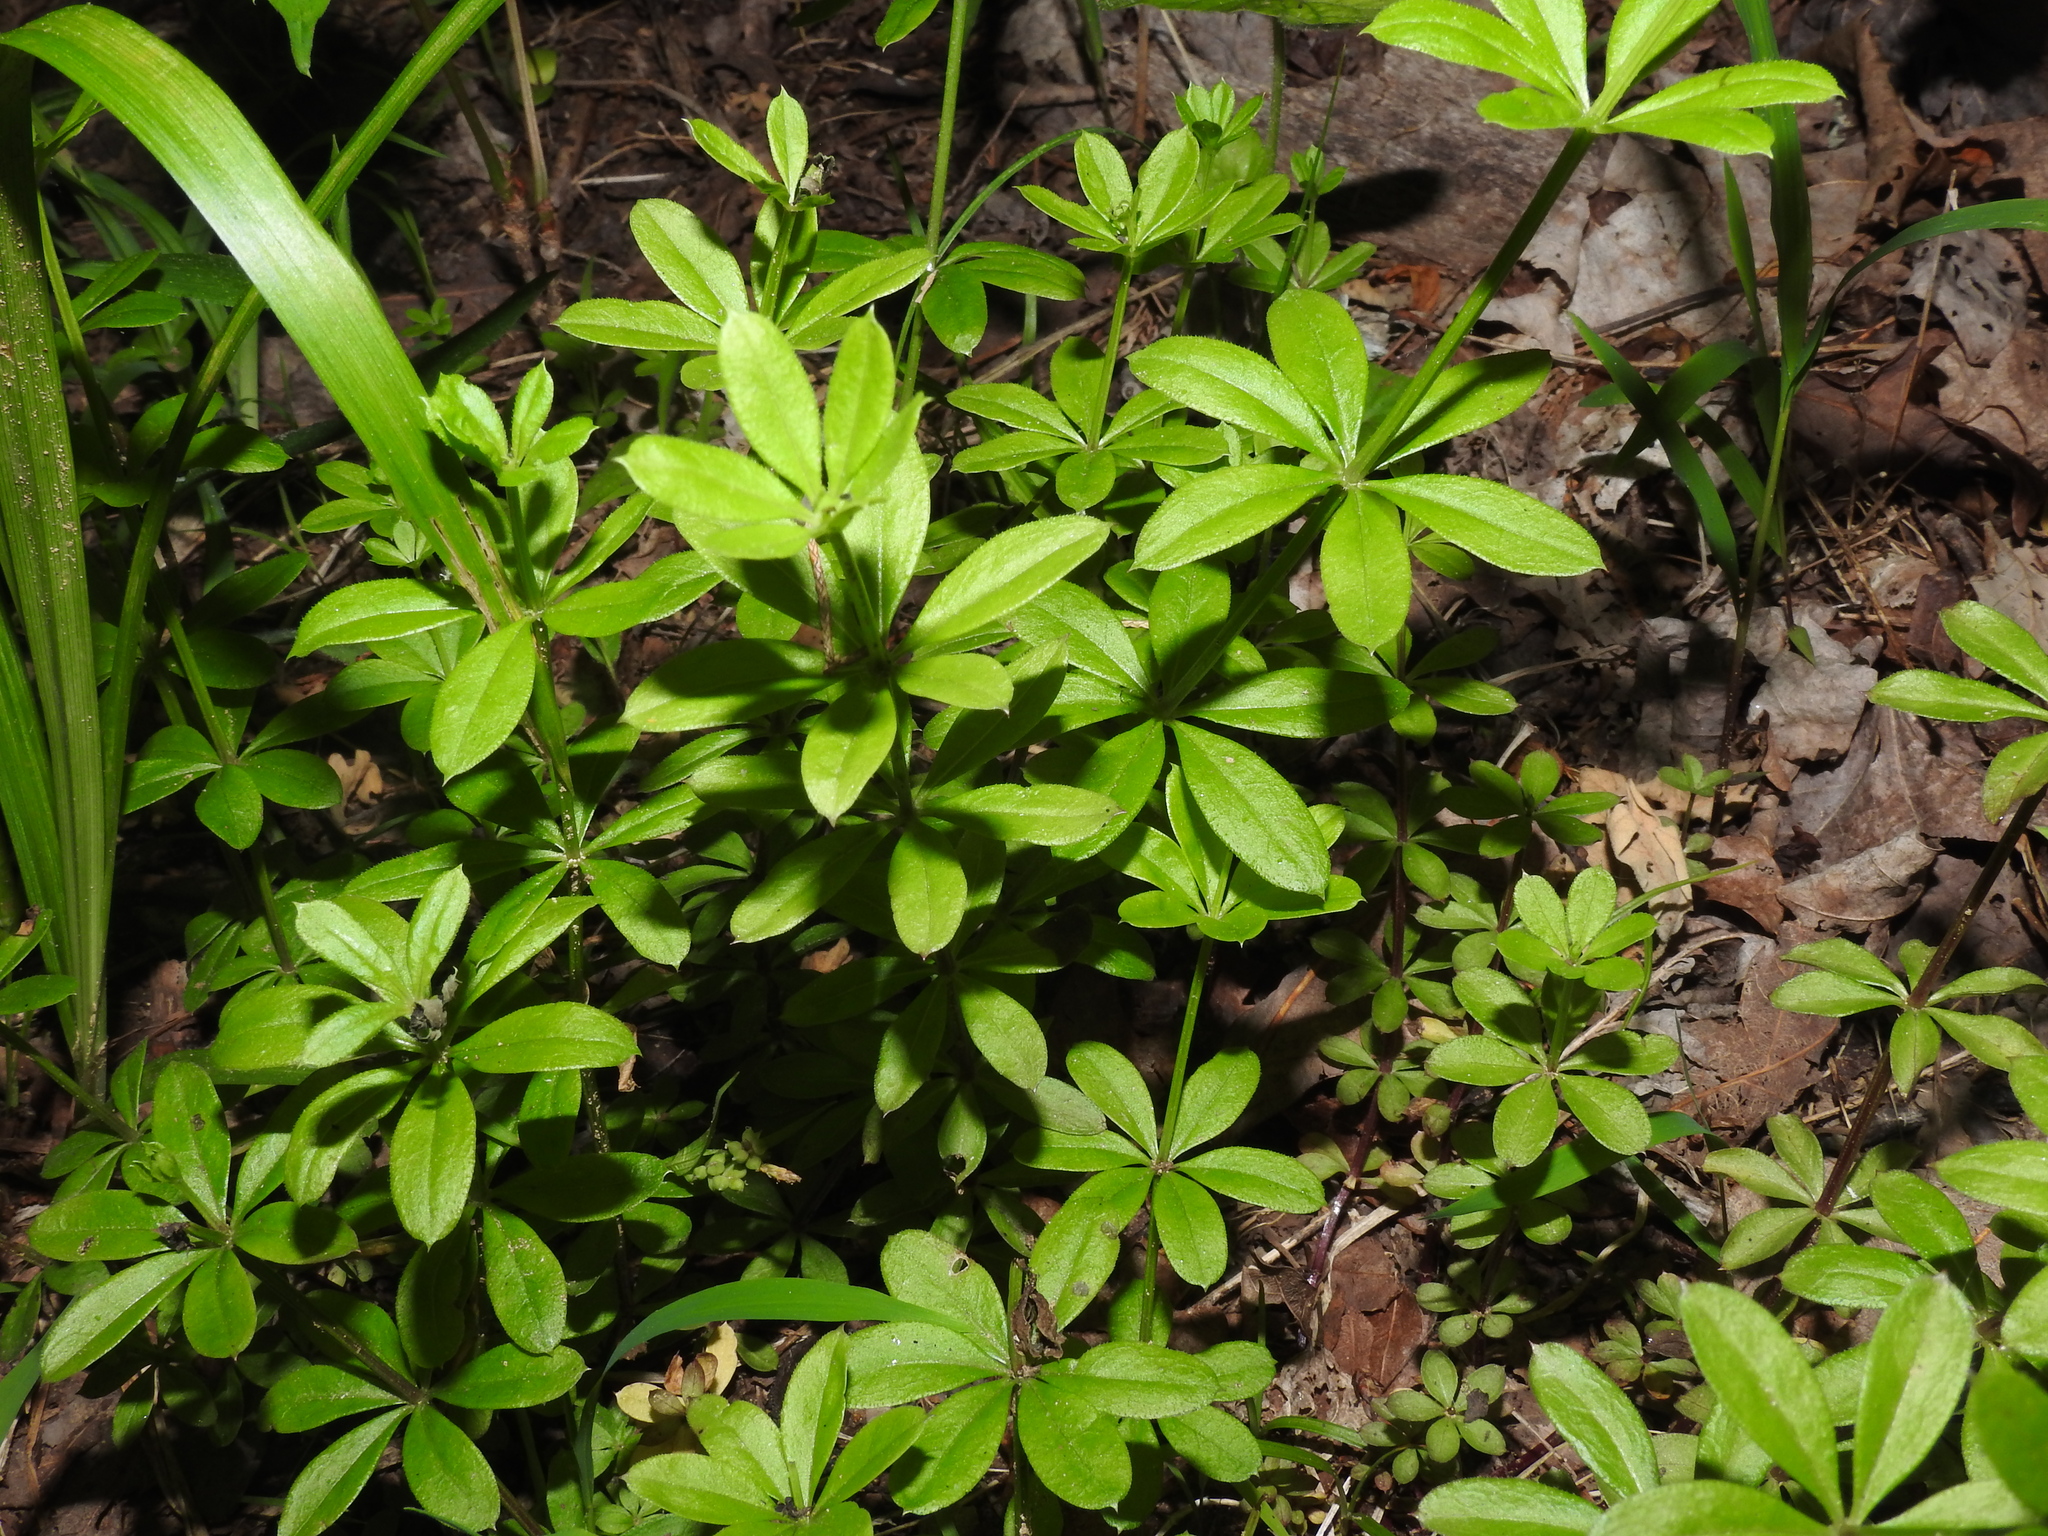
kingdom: Plantae
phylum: Tracheophyta
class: Magnoliopsida
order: Gentianales
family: Rubiaceae
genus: Galium
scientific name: Galium triflorum
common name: Fragrant bedstraw
